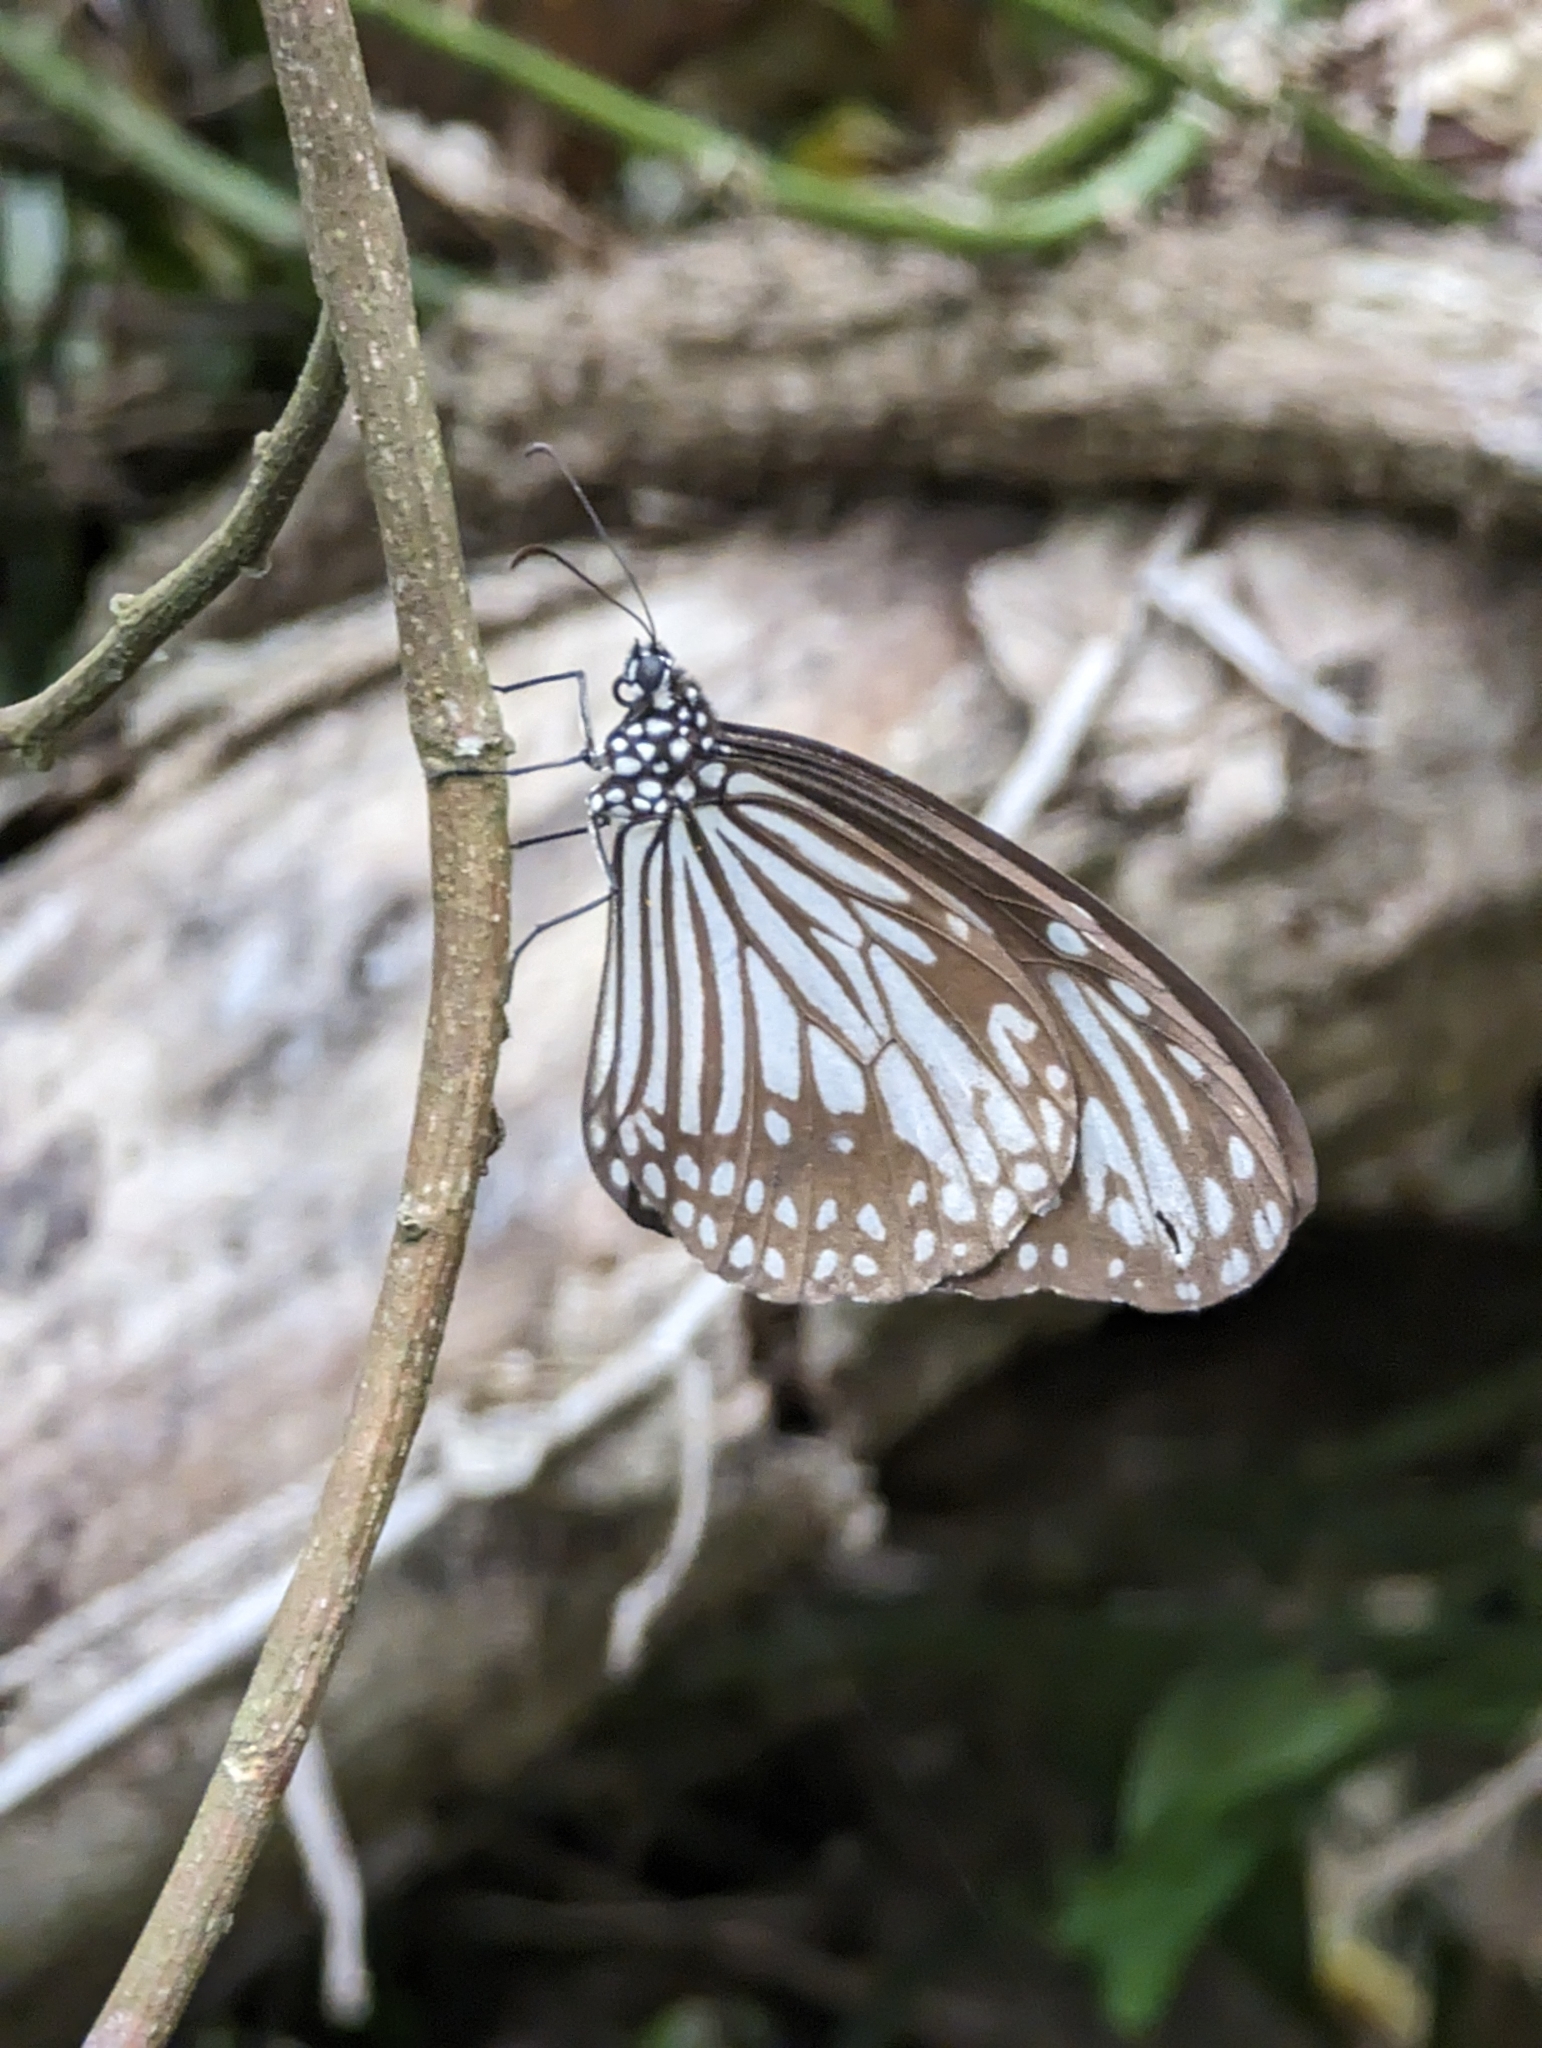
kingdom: Animalia
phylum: Arthropoda
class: Insecta
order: Lepidoptera
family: Nymphalidae
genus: Parantica
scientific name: Parantica aglea
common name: Glassy tiger
